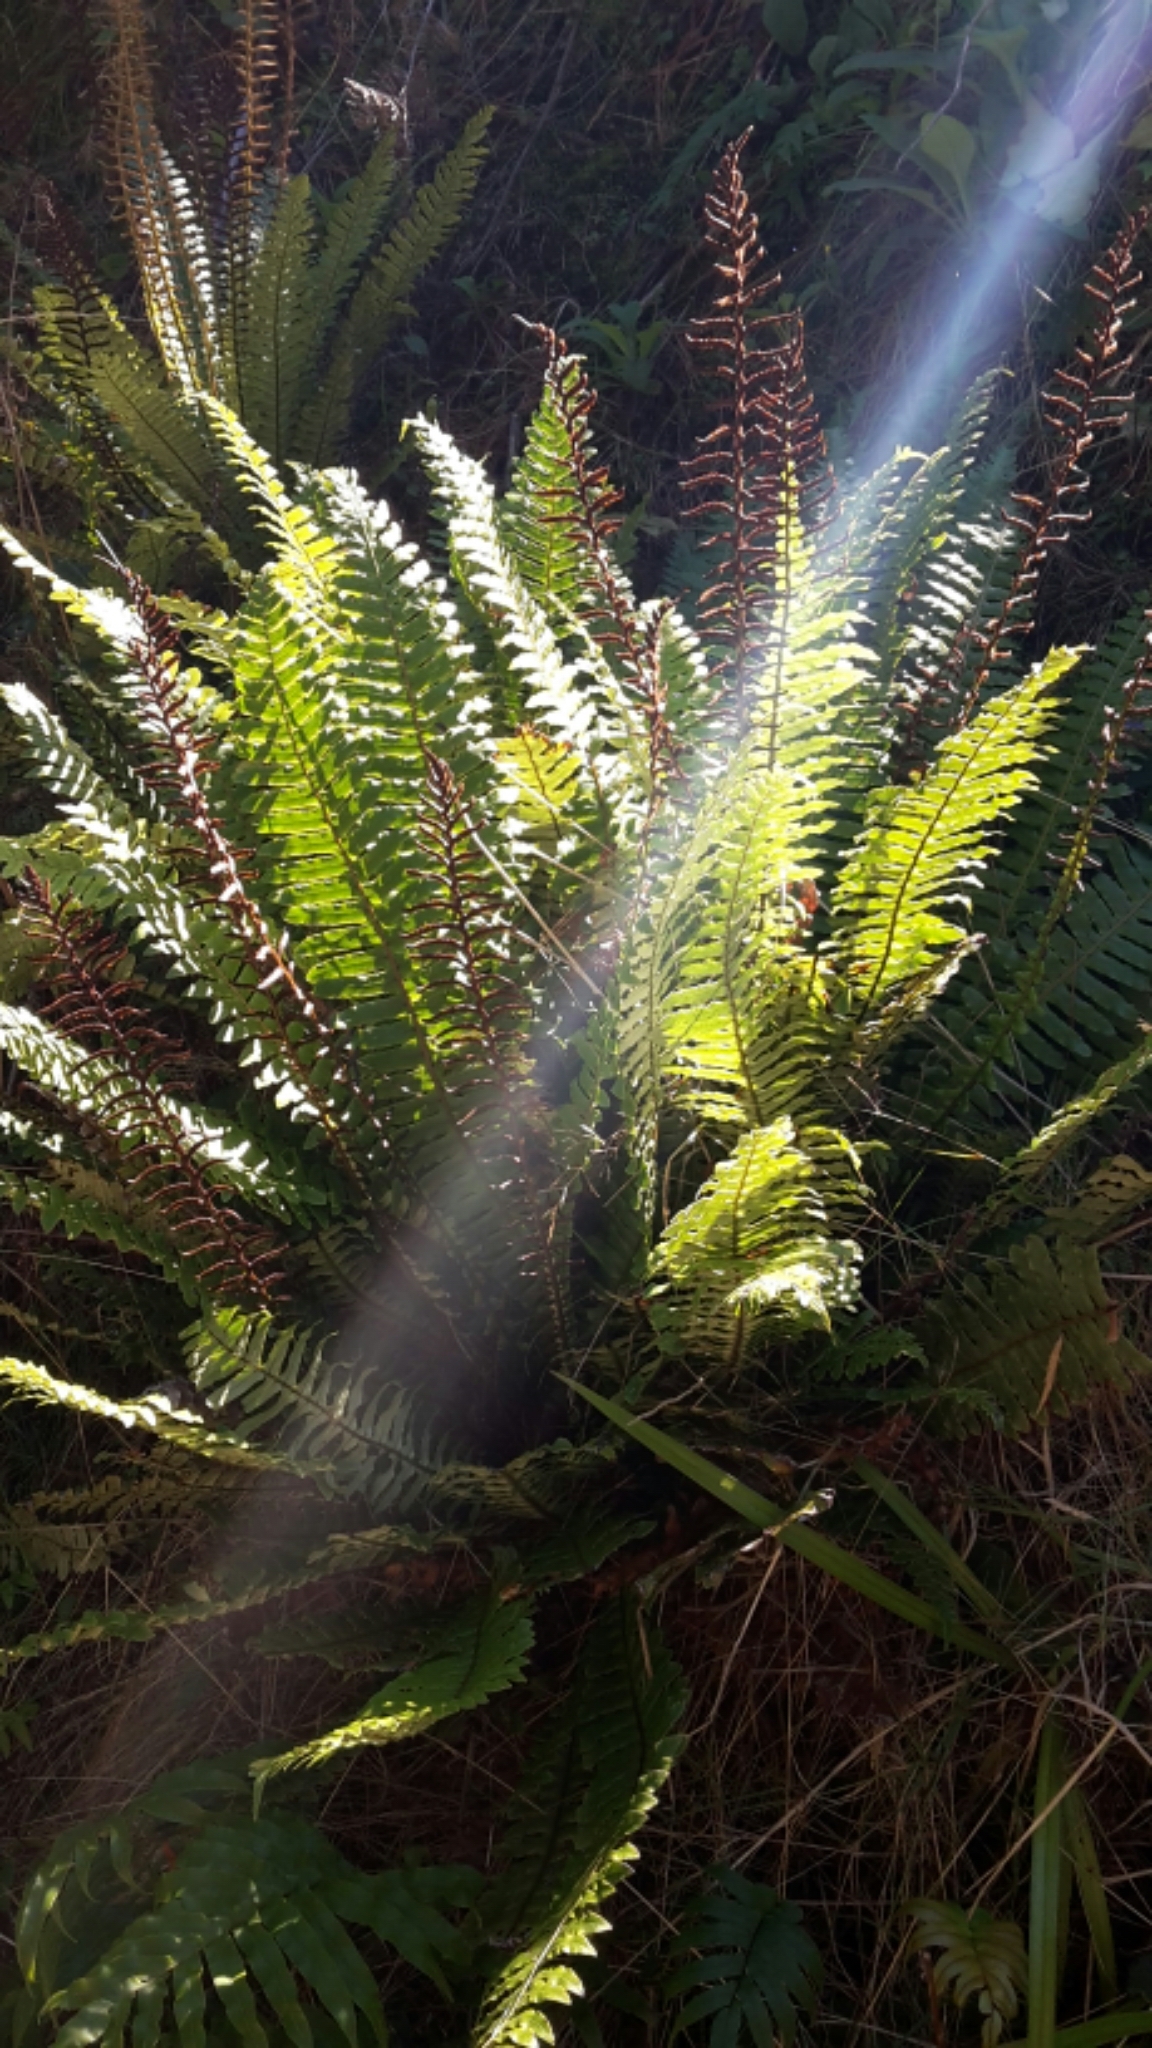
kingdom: Plantae
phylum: Tracheophyta
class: Polypodiopsida
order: Polypodiales
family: Blechnaceae
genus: Lomaria
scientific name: Lomaria discolor
